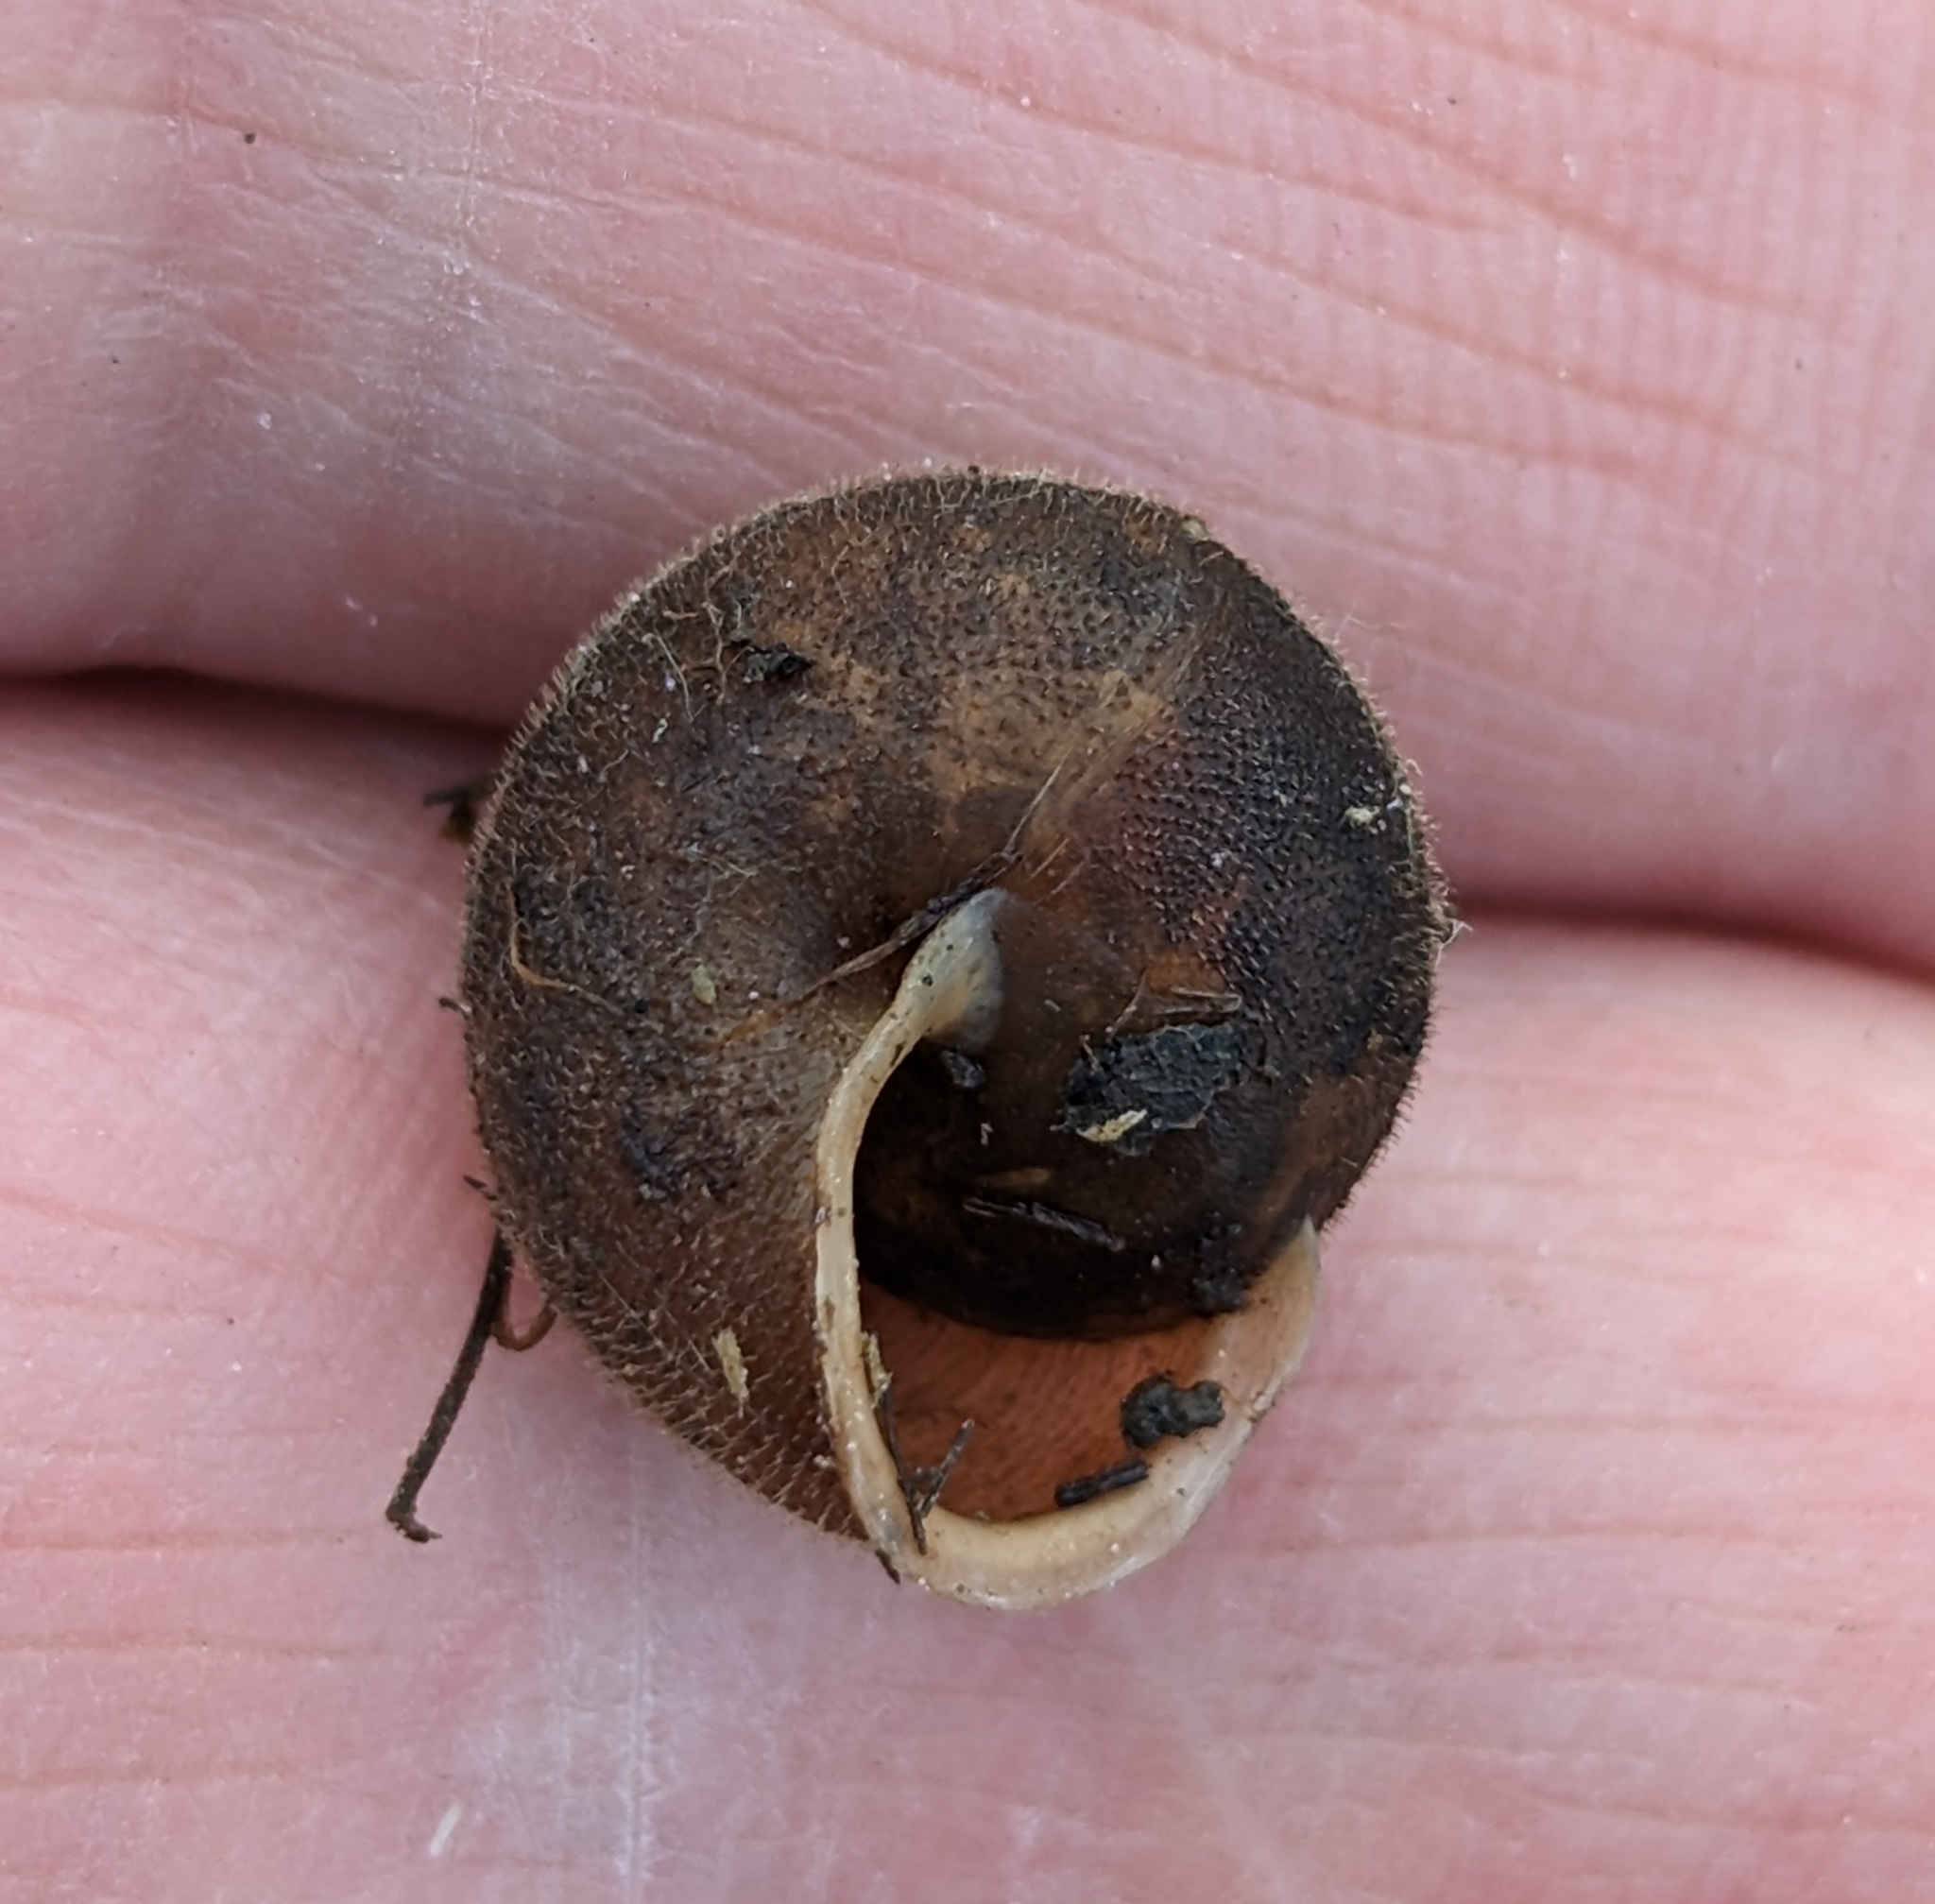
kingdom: Animalia
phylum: Mollusca
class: Gastropoda
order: Stylommatophora
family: Polygyridae
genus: Vespericola
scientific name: Vespericola columbianus
